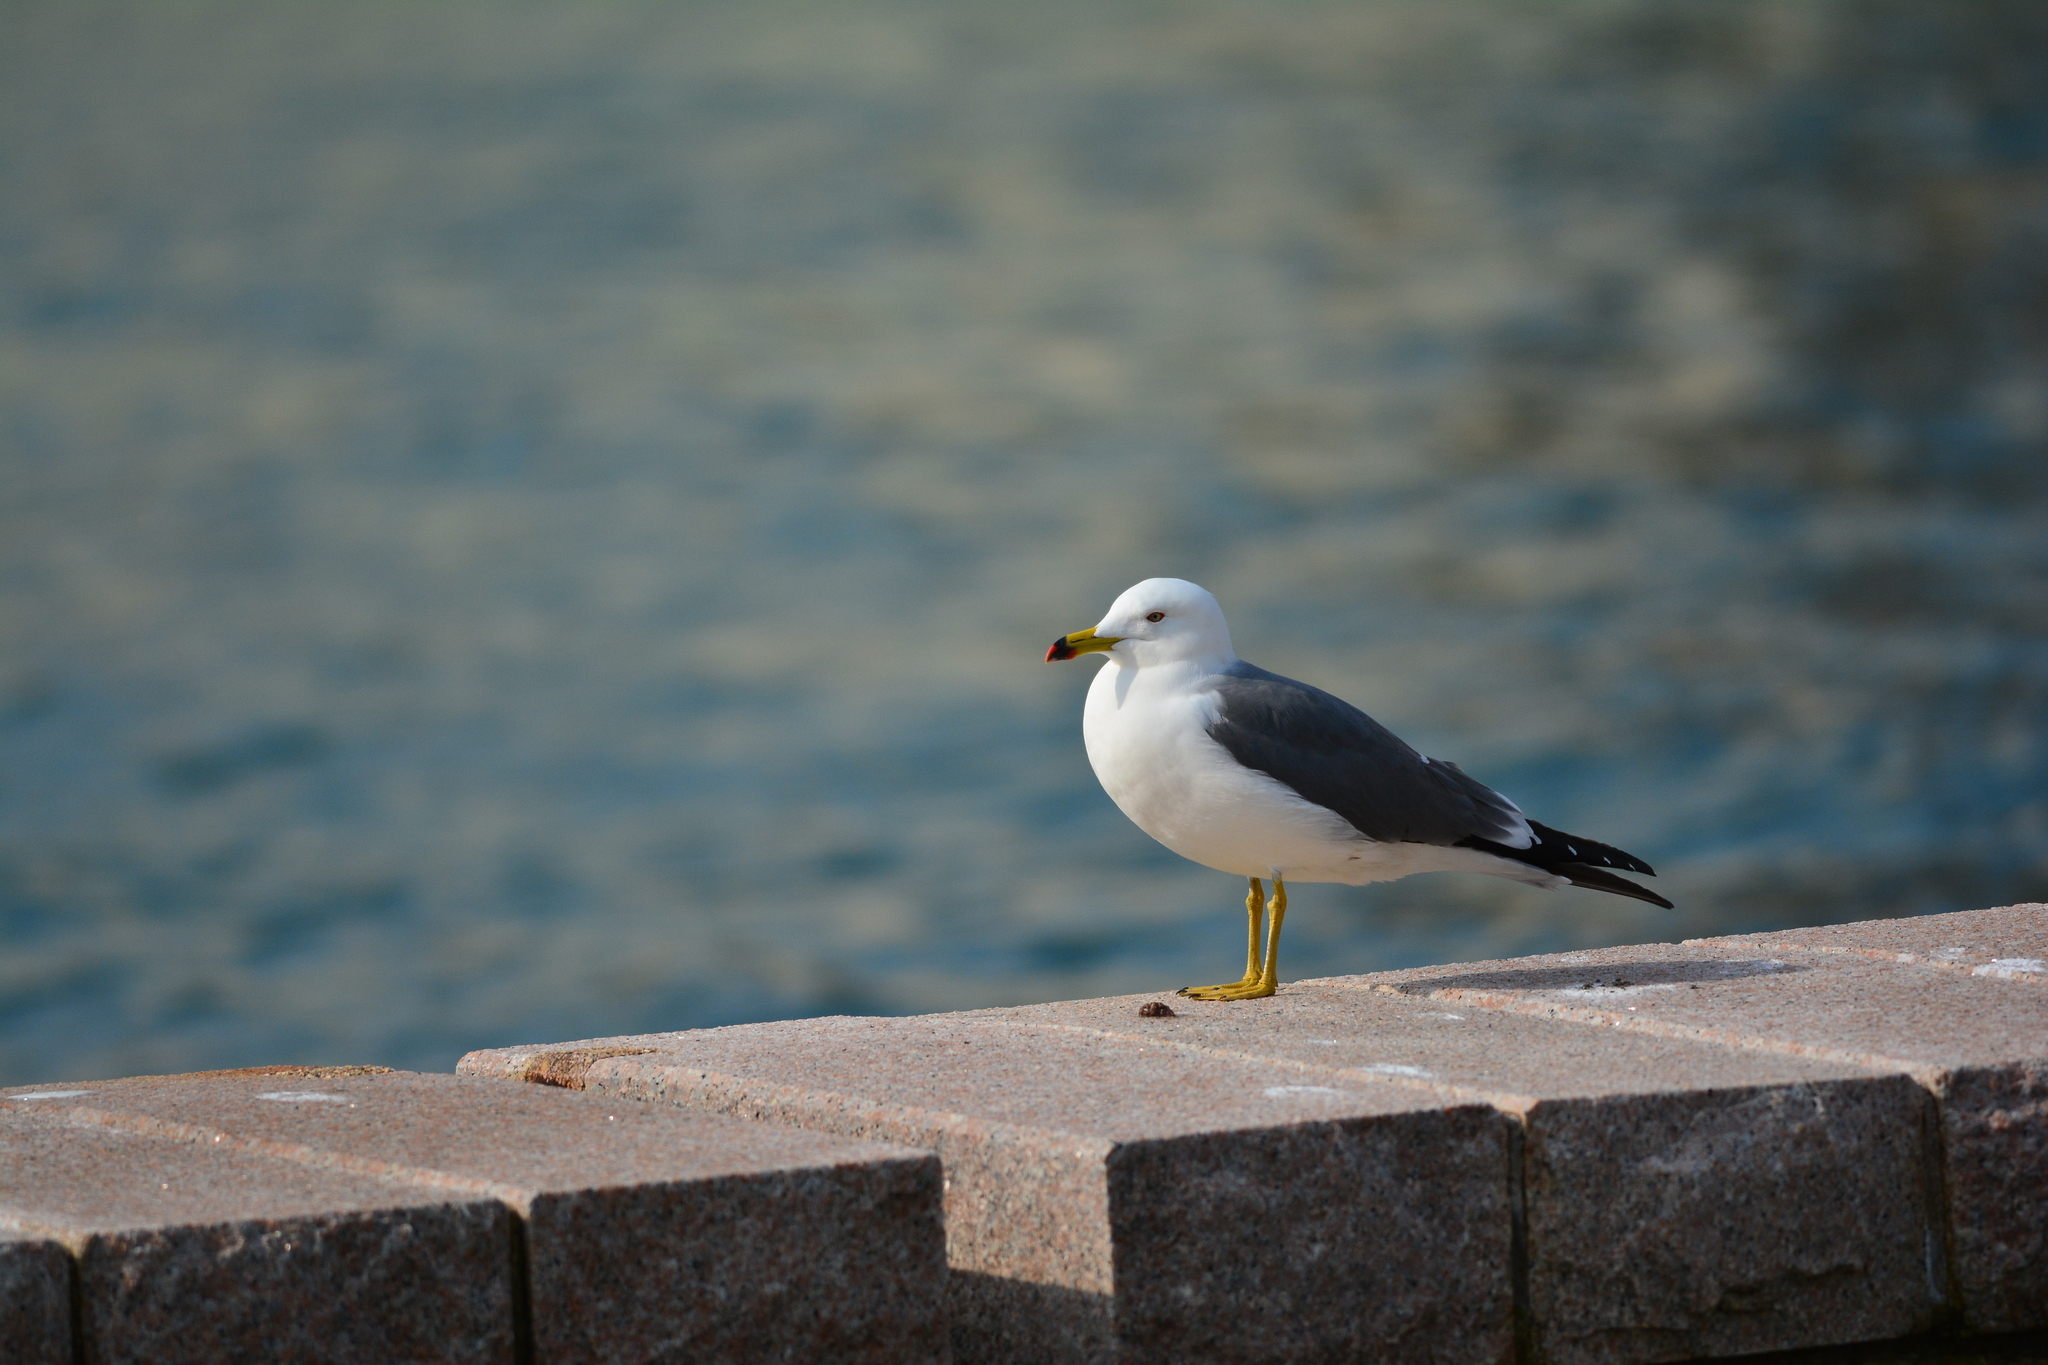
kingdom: Animalia
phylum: Chordata
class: Aves
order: Charadriiformes
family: Laridae
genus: Larus
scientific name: Larus crassirostris
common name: Black-tailed gull
